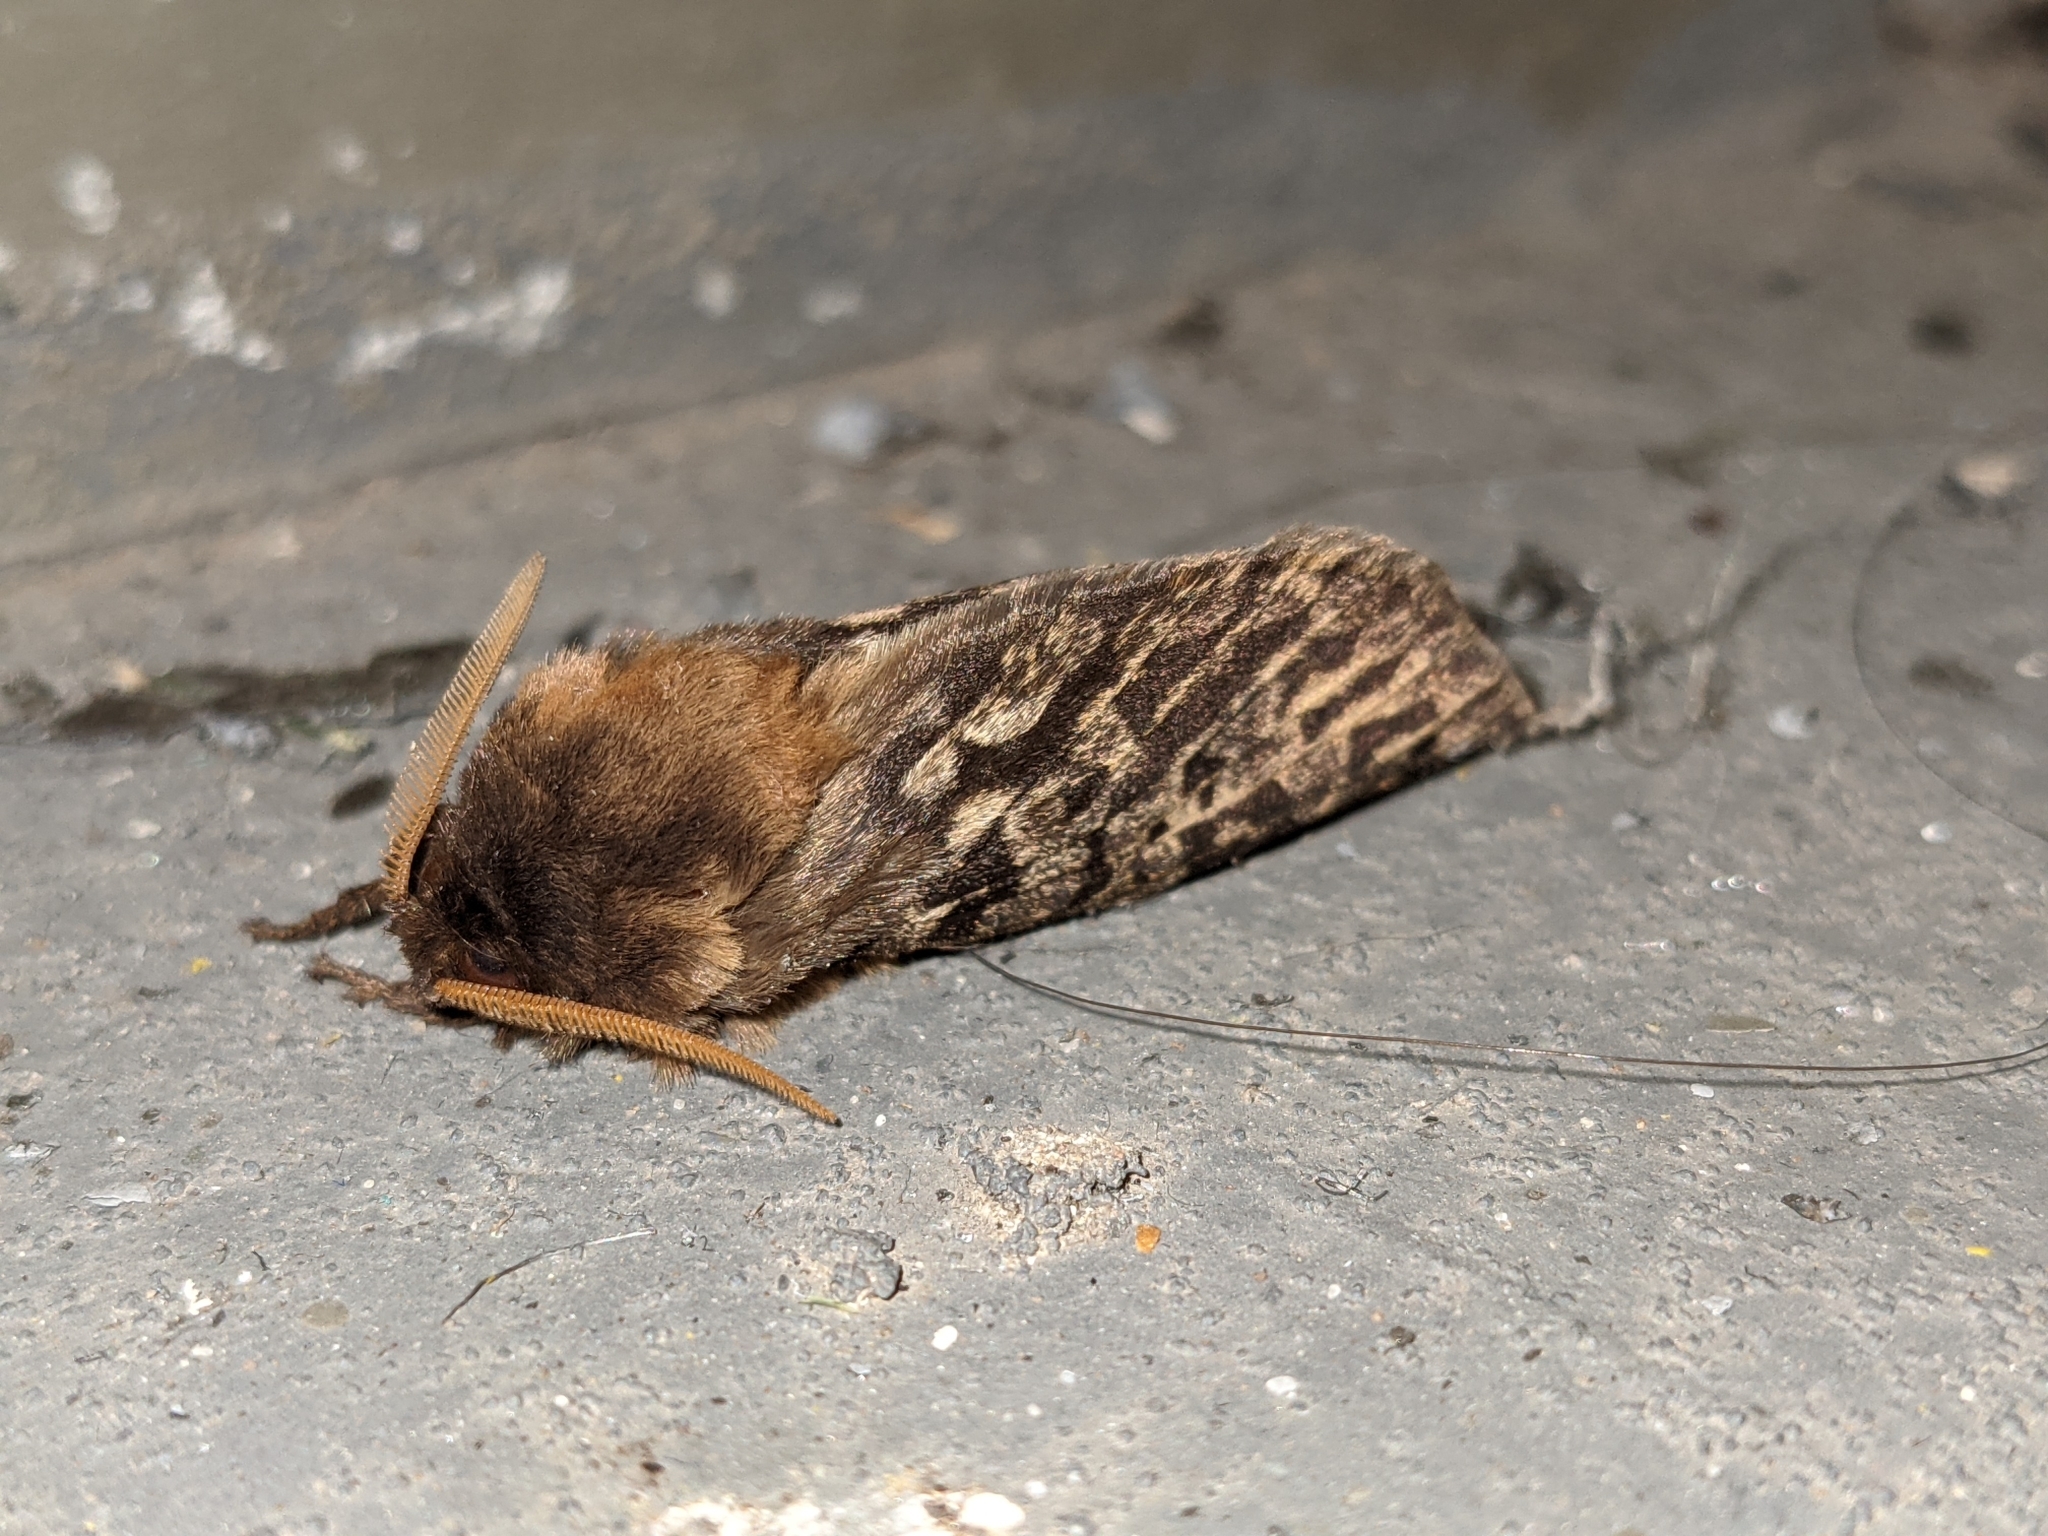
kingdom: Animalia
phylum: Arthropoda
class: Insecta
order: Lepidoptera
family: Hepialidae
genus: Oxycanus
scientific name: Oxycanus antipoda
